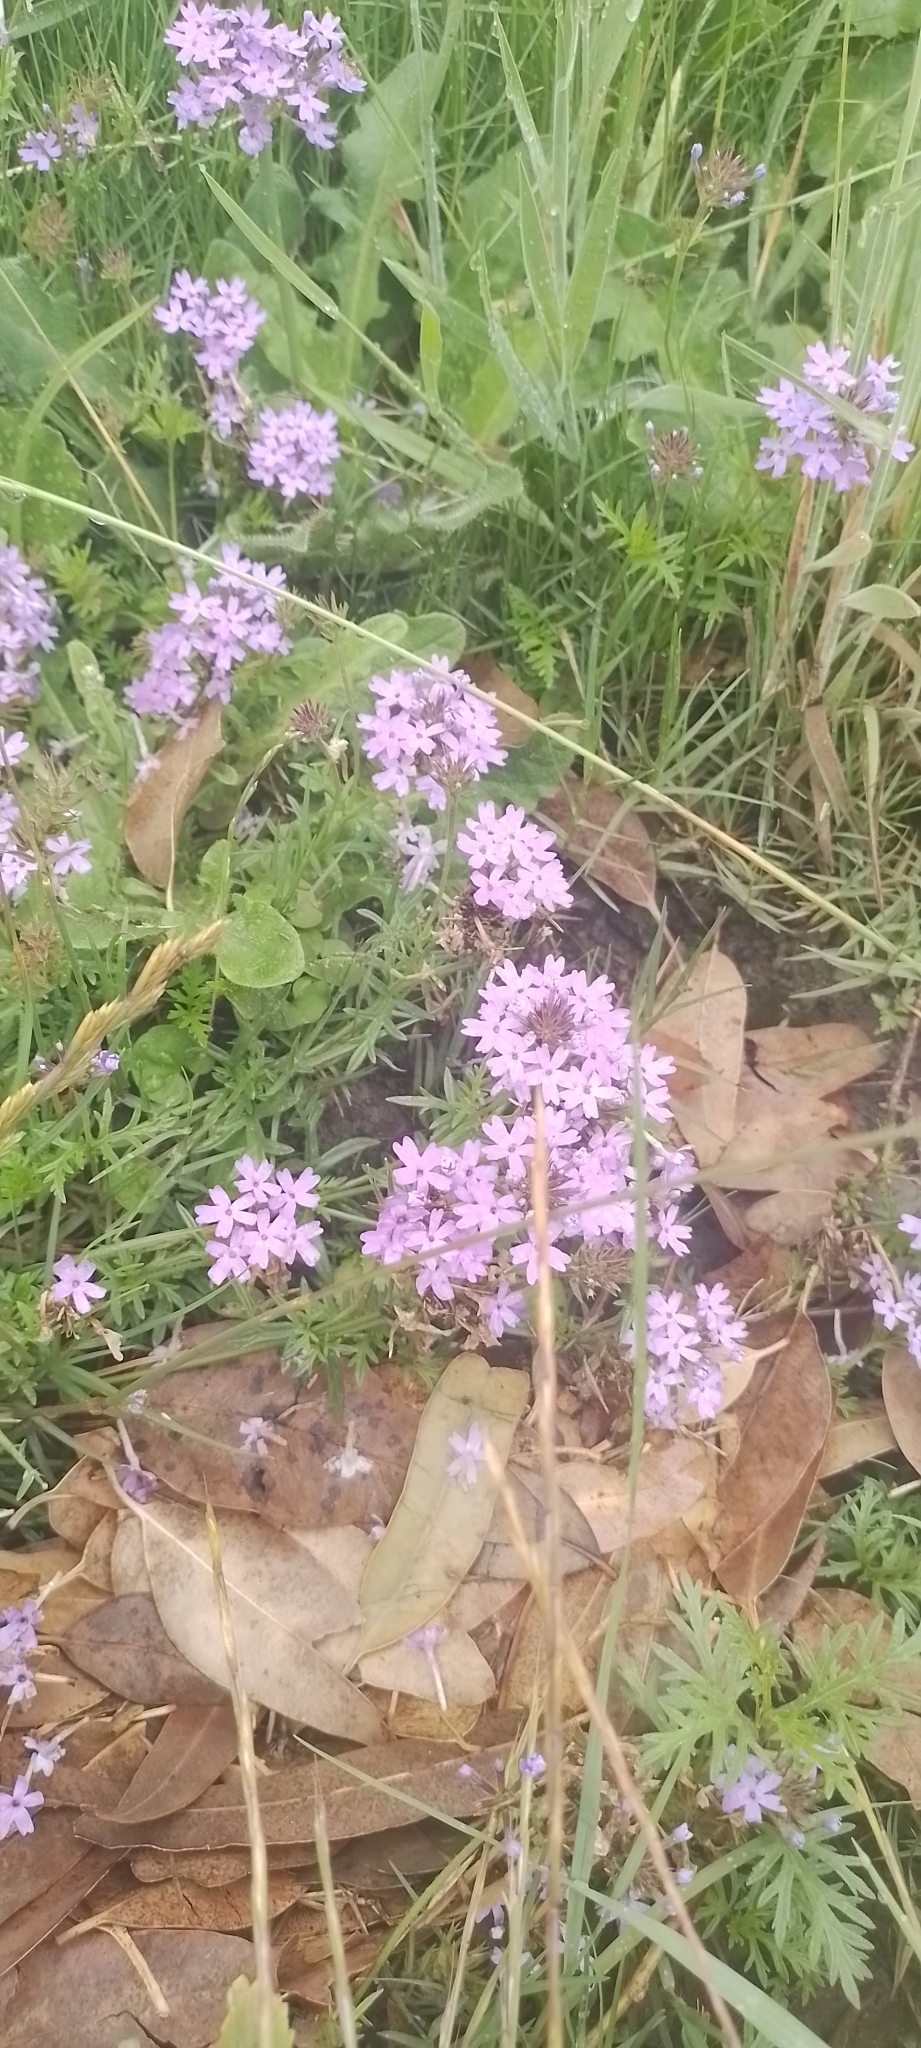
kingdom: Plantae
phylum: Tracheophyta
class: Magnoliopsida
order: Lamiales
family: Verbenaceae
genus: Verbena
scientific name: Verbena selloi
